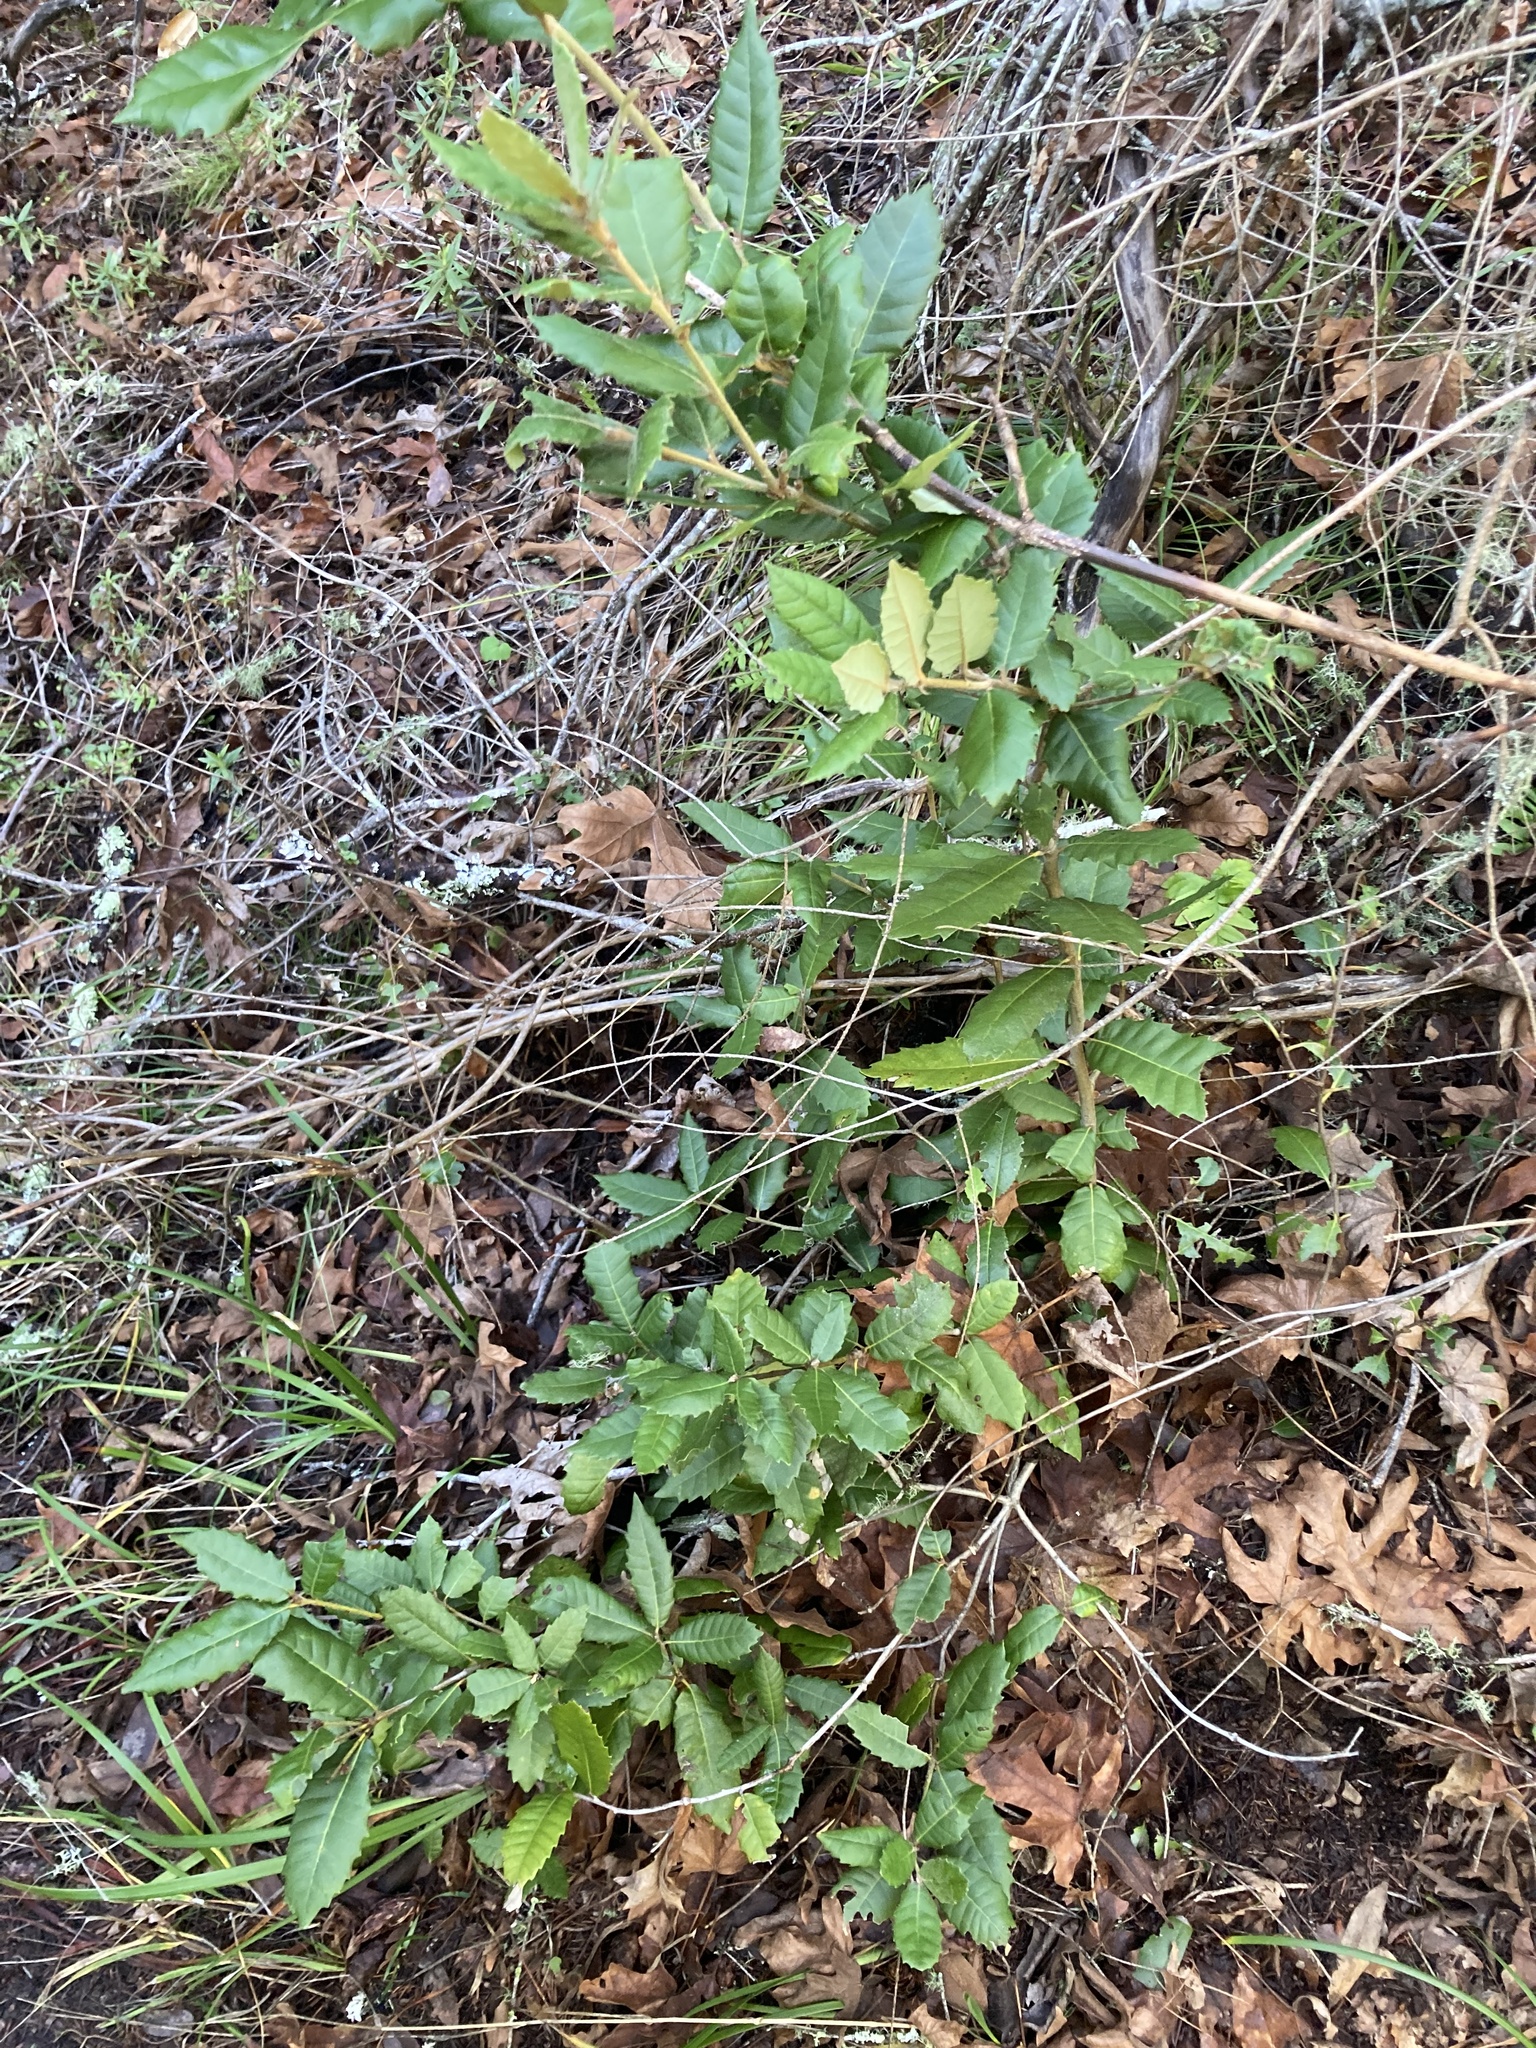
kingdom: Plantae
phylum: Tracheophyta
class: Magnoliopsida
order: Fagales
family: Fagaceae
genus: Notholithocarpus
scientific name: Notholithocarpus densiflorus
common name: Tan bark oak
